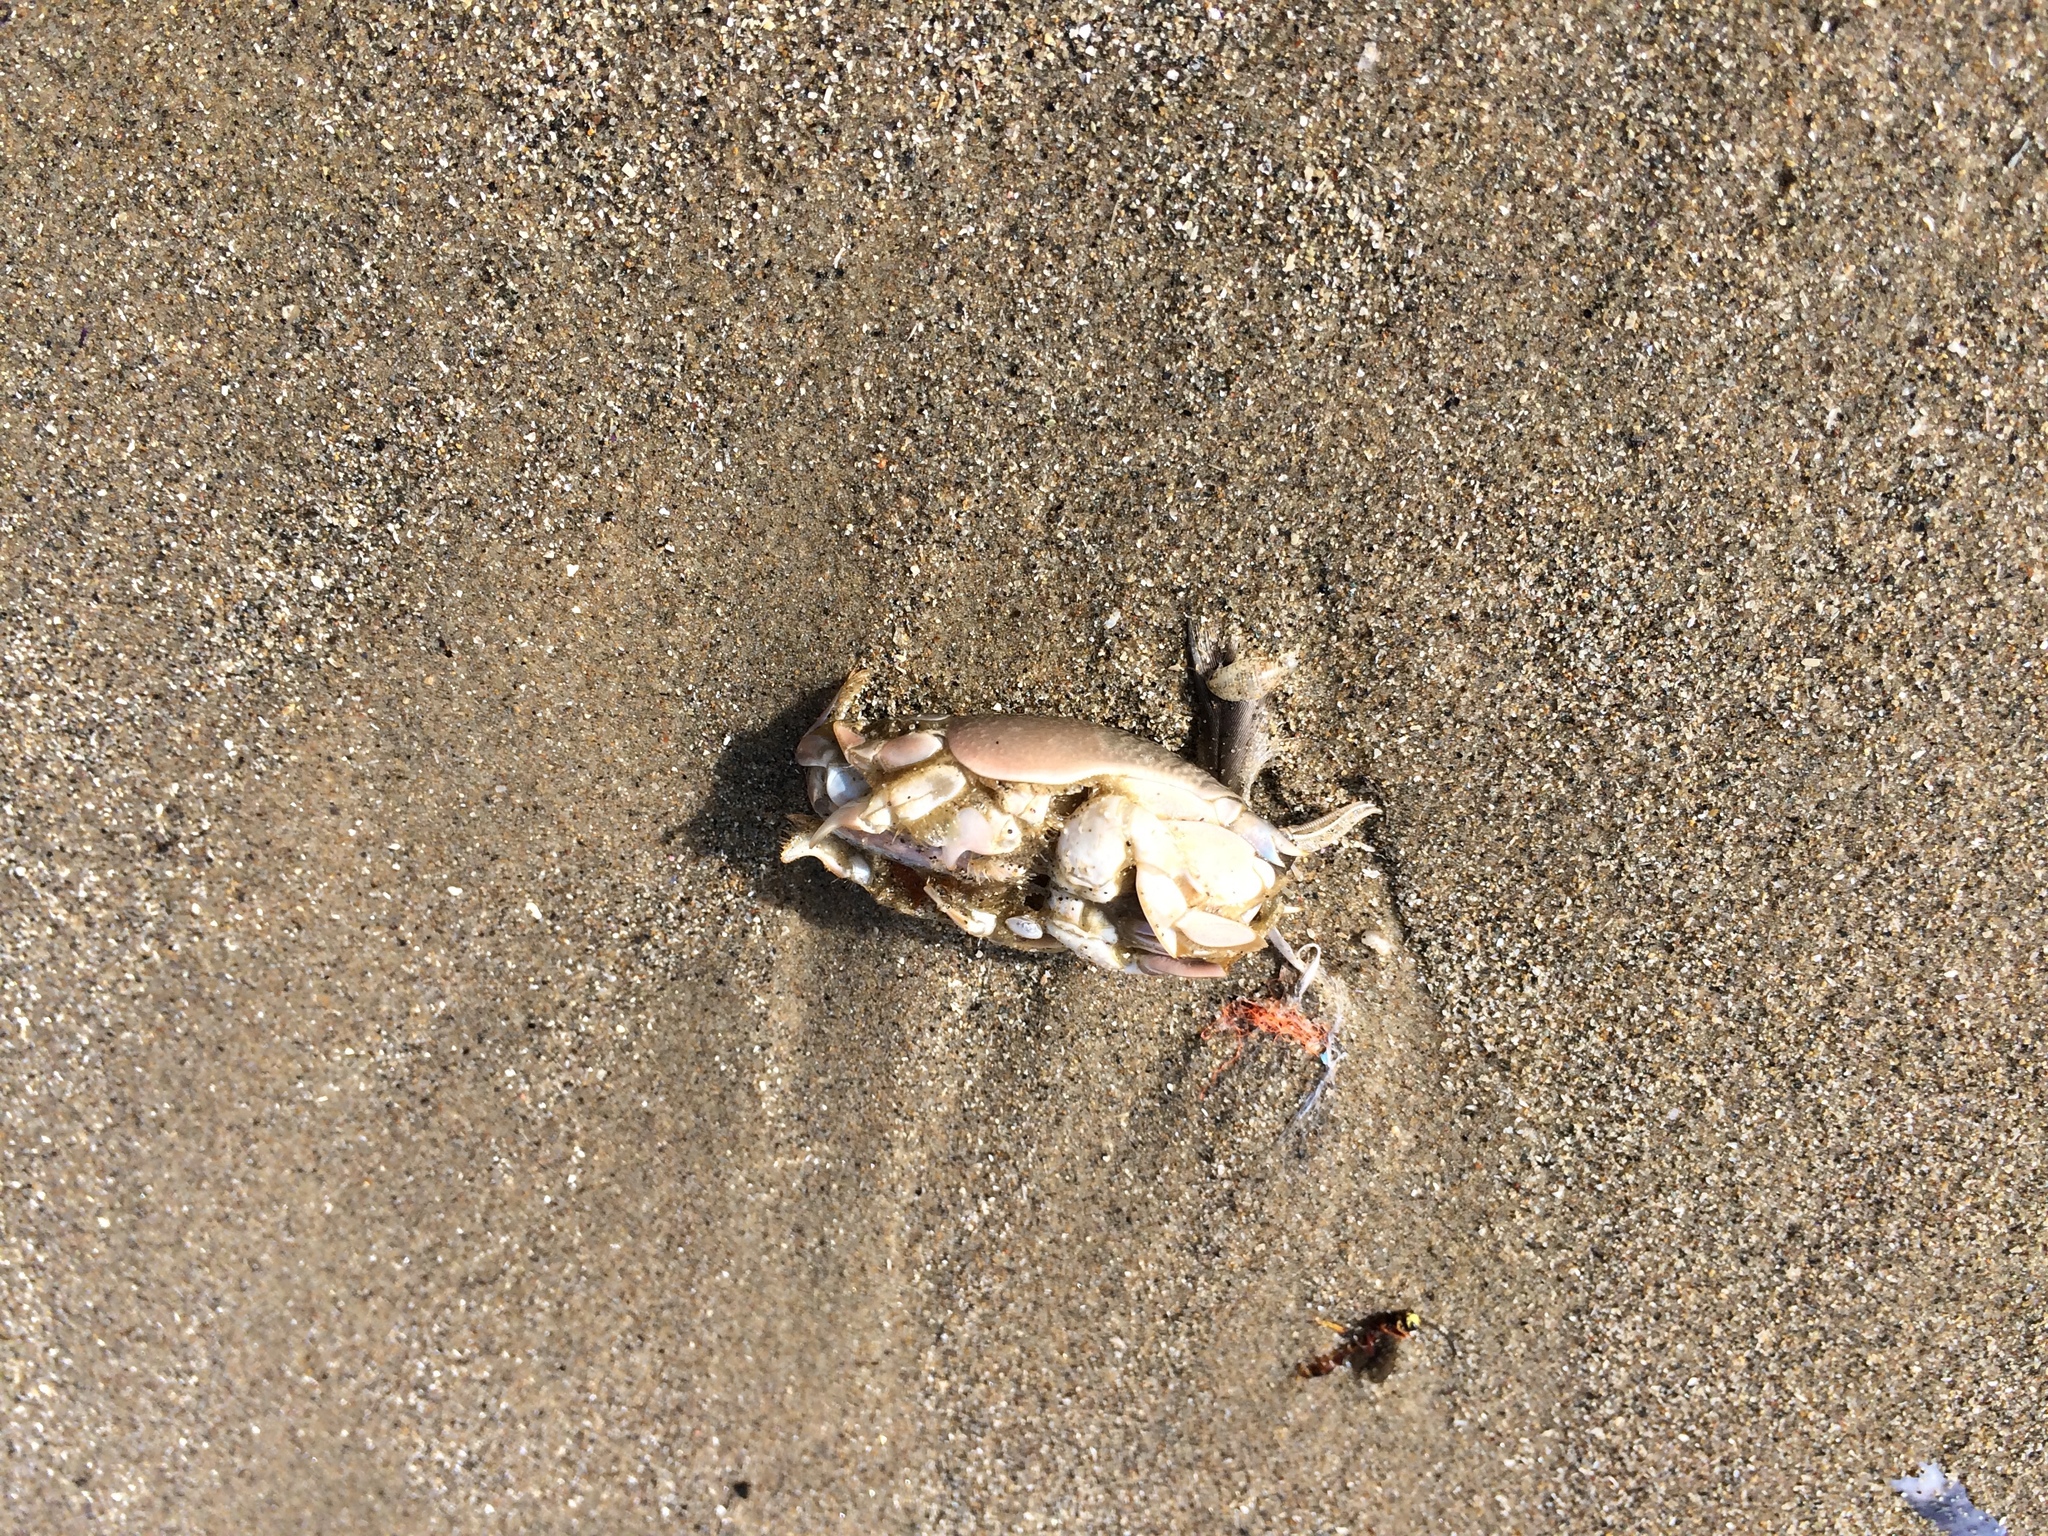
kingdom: Animalia
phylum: Arthropoda
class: Malacostraca
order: Decapoda
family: Hippidae
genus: Emerita
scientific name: Emerita analoga
